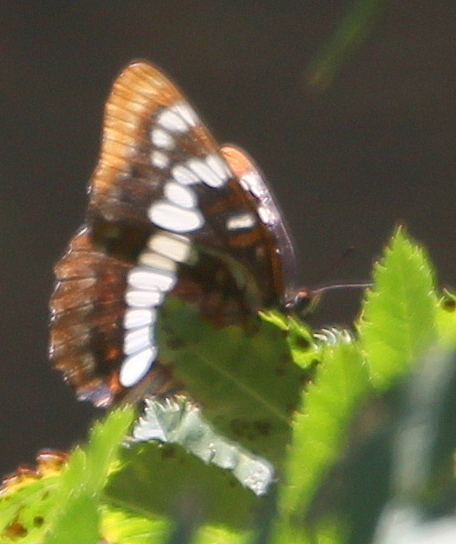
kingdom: Animalia
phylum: Arthropoda
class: Insecta
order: Lepidoptera
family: Nymphalidae
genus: Limenitis
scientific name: Limenitis lorquini
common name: Lorquin's admiral
